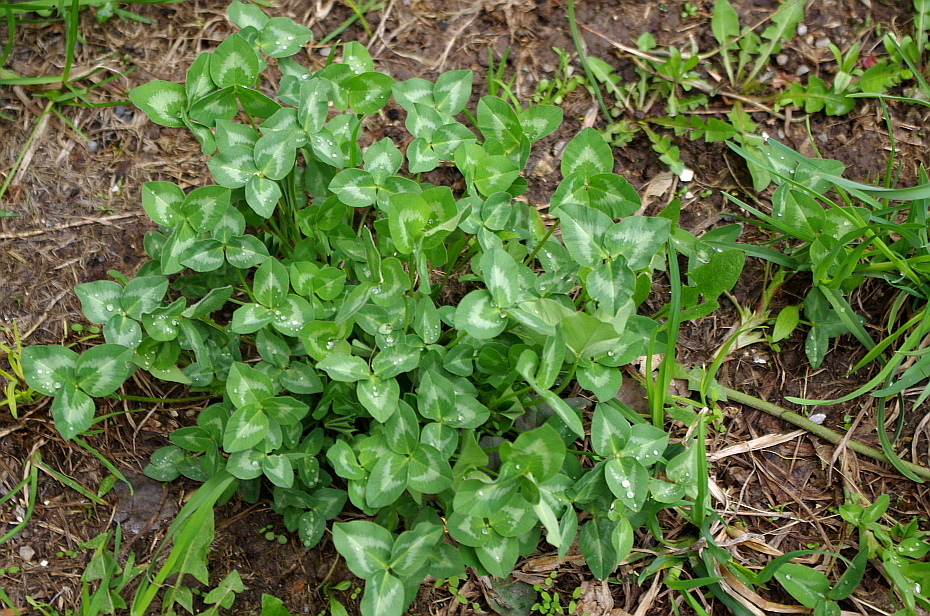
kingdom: Plantae
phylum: Tracheophyta
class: Magnoliopsida
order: Fabales
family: Fabaceae
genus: Trifolium
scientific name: Trifolium pratense
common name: Red clover
